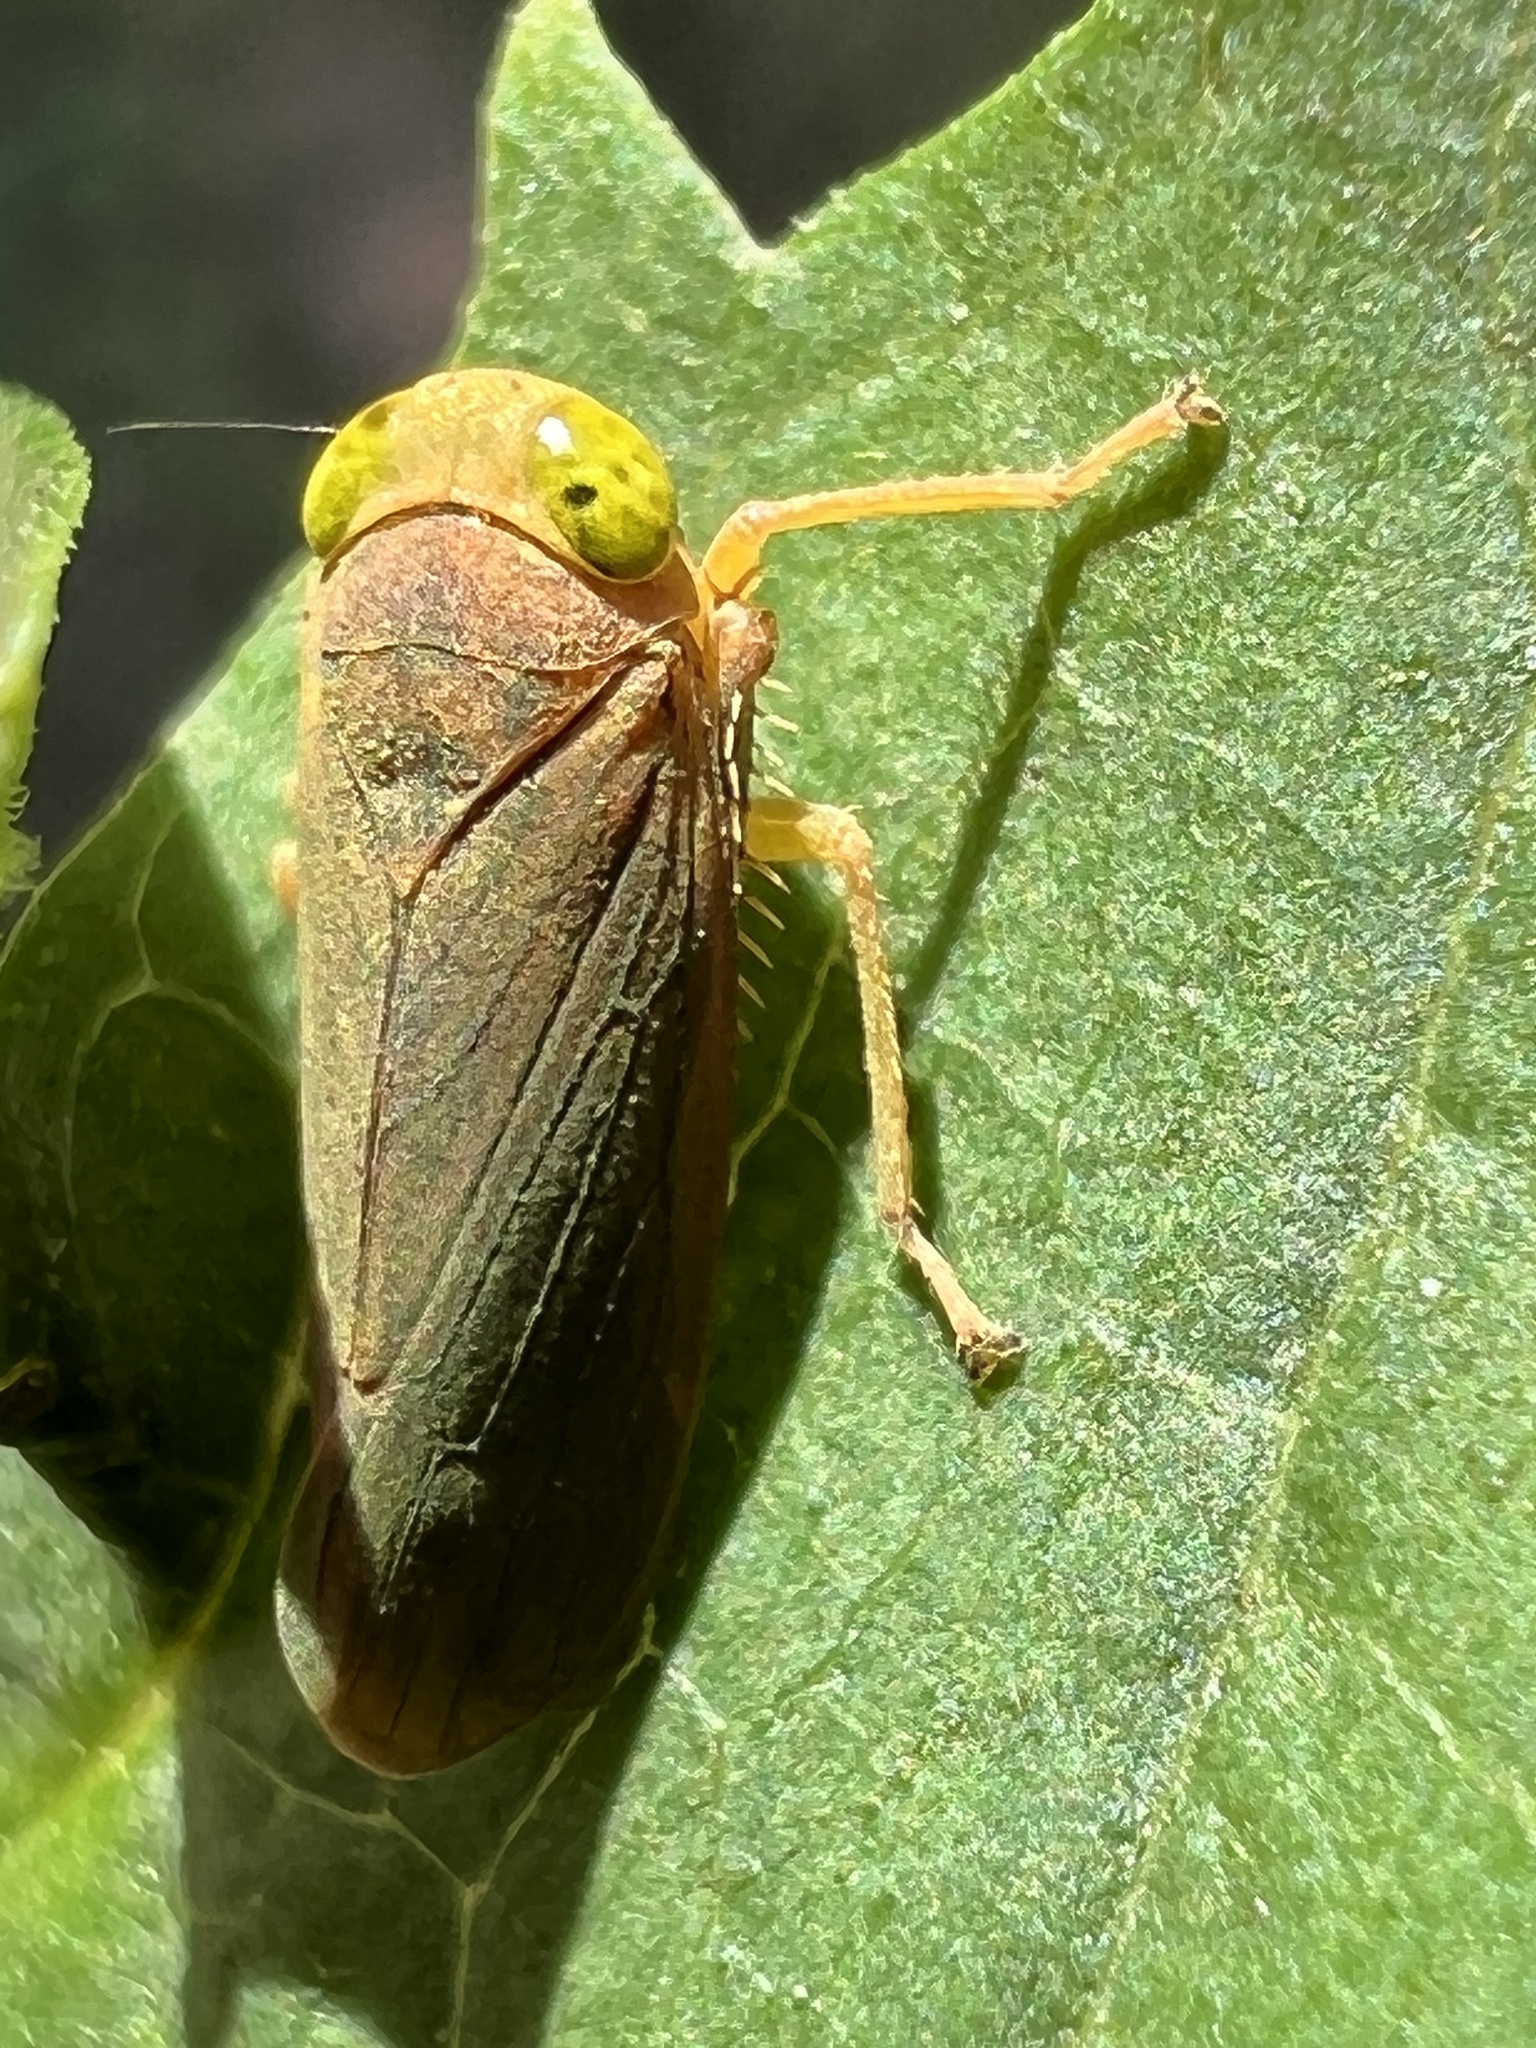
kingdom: Animalia
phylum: Arthropoda
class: Insecta
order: Hemiptera
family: Cicadellidae
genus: Jikradia
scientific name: Jikradia olitoria
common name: Coppery leafhopper
